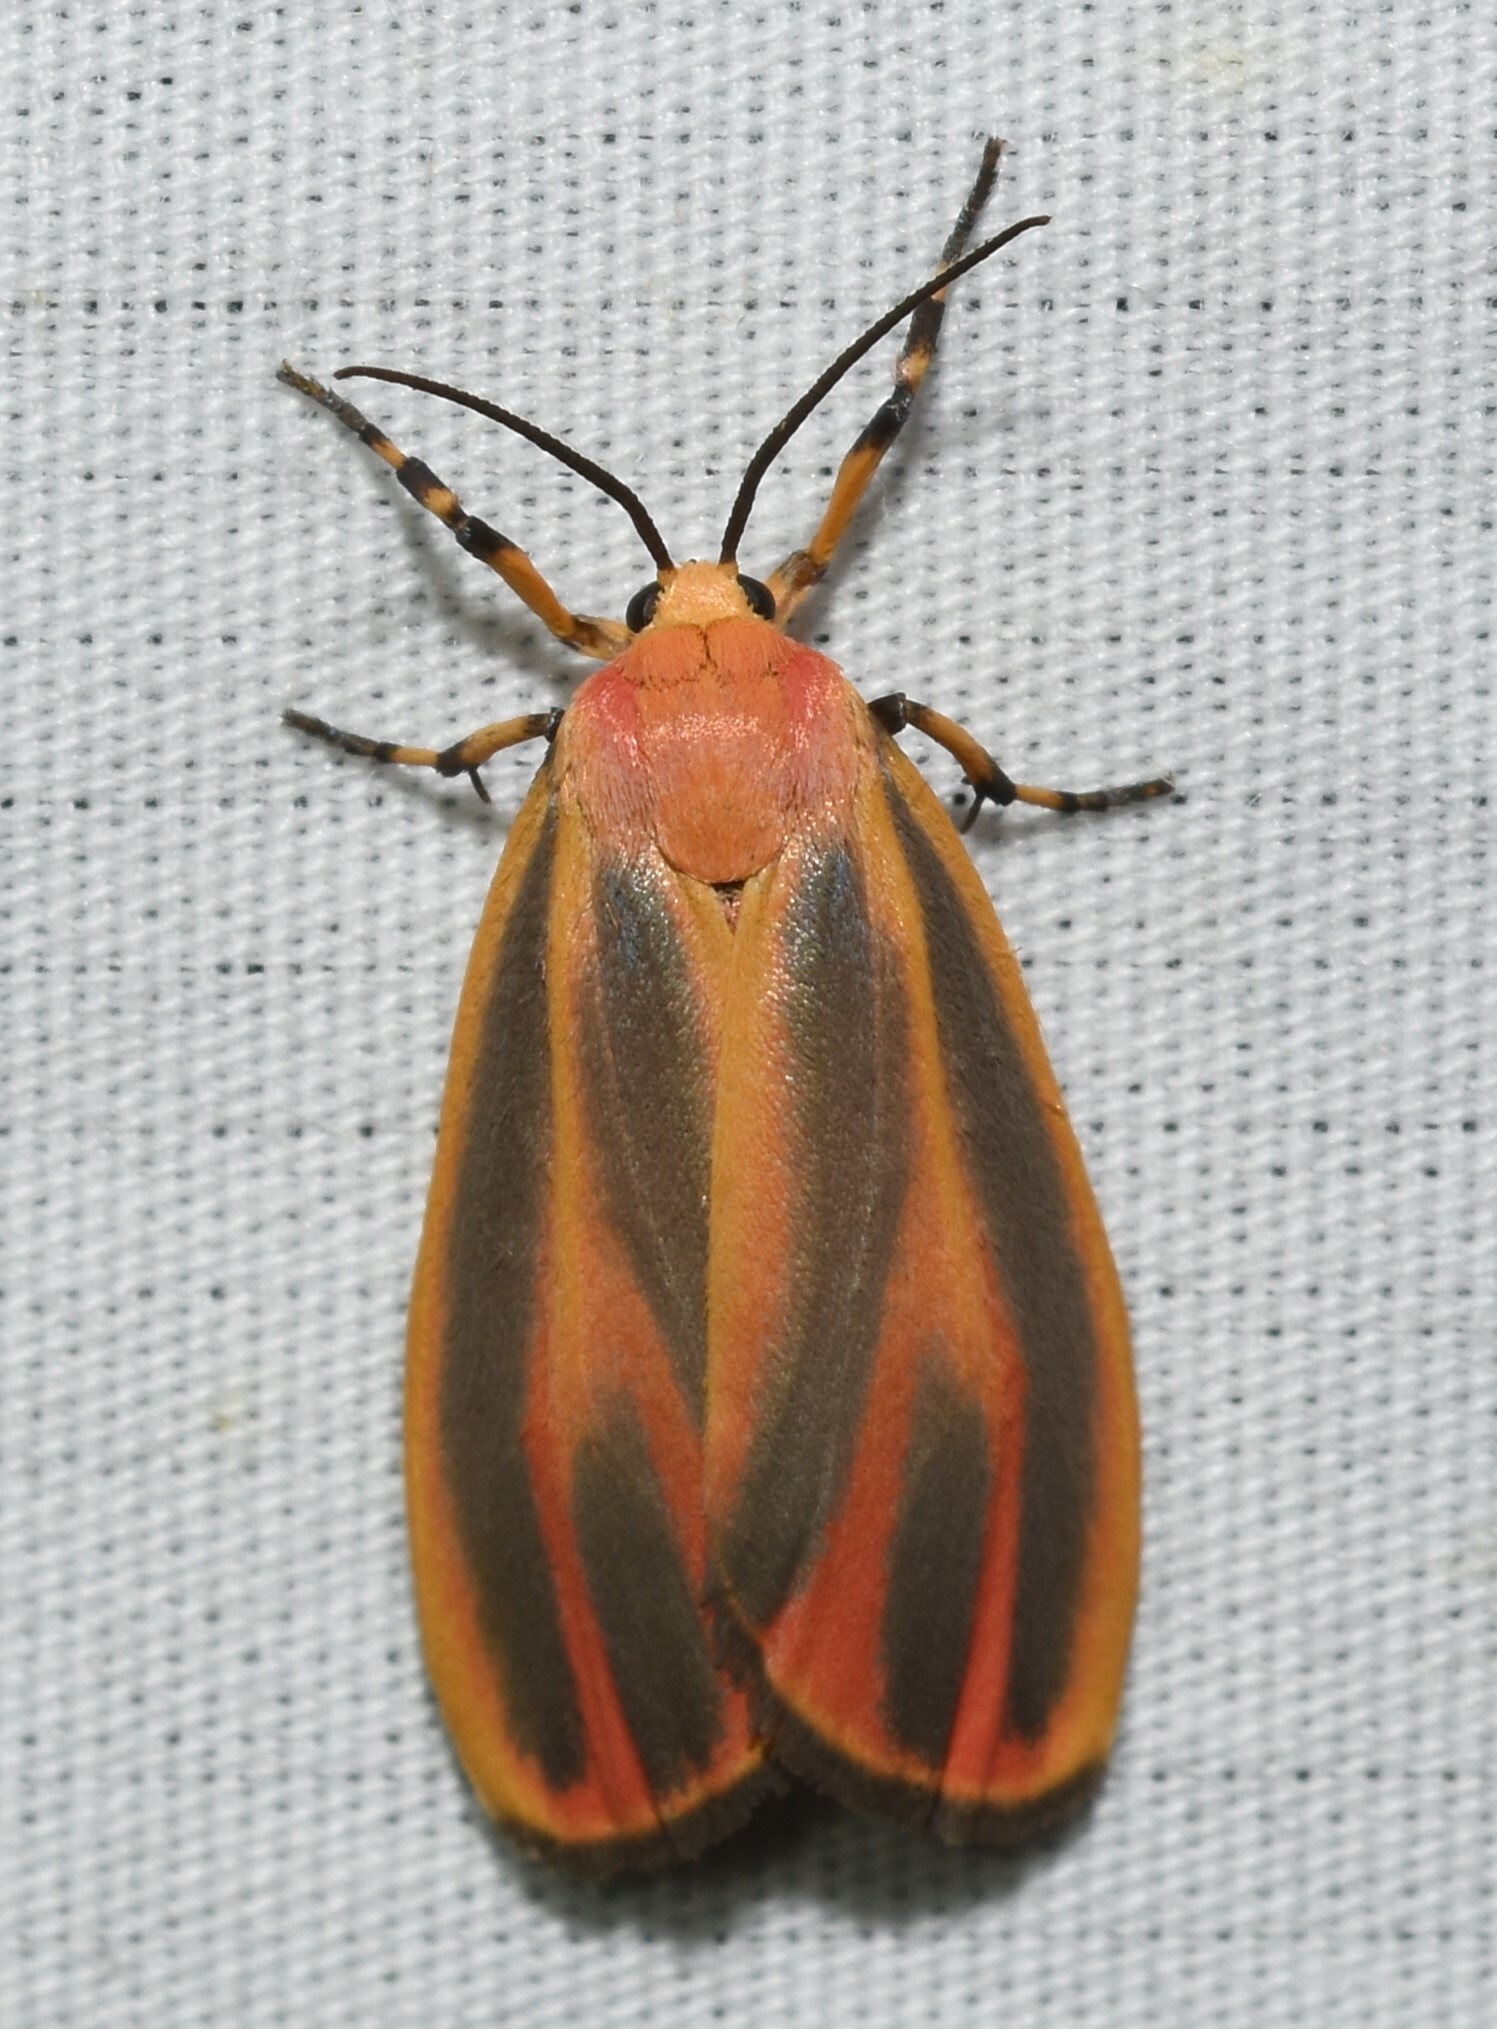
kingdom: Animalia
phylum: Arthropoda
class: Insecta
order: Lepidoptera
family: Erebidae
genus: Hypoprepia
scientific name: Hypoprepia fucosa
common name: Painted lichen moth
